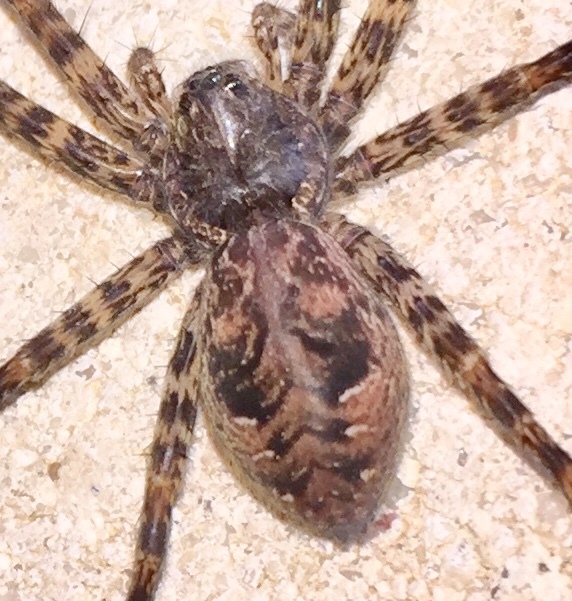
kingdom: Animalia
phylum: Arthropoda
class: Arachnida
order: Araneae
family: Pisauridae
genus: Dolomedes
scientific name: Dolomedes tenebrosus
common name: Dark fishing spider
